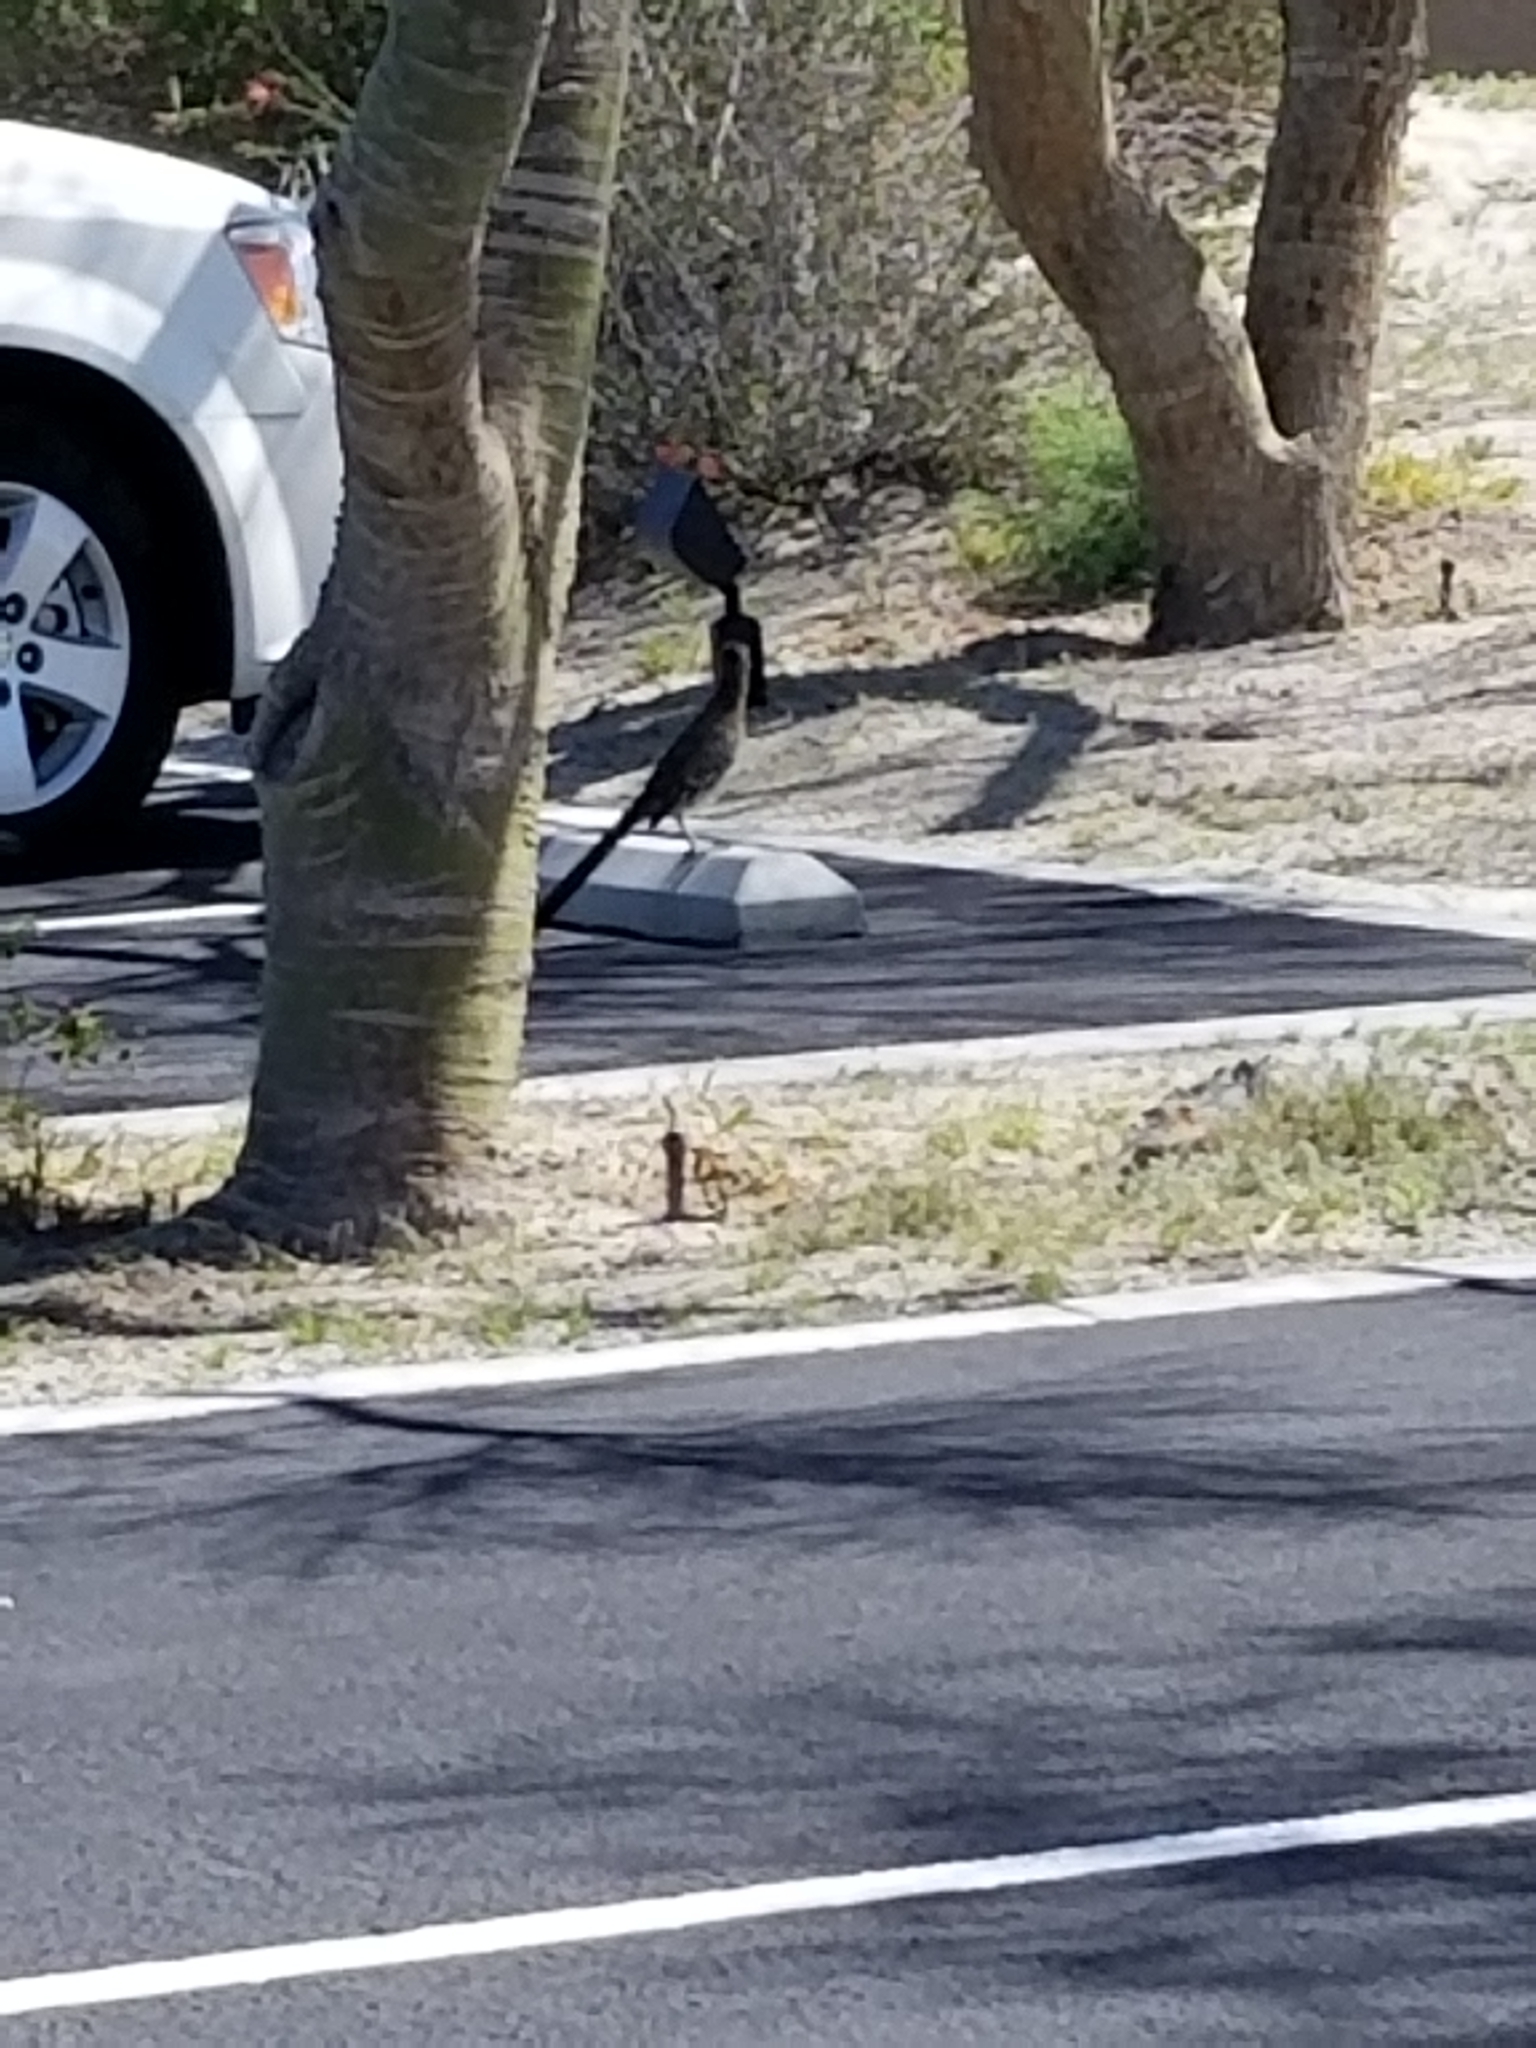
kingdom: Animalia
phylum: Chordata
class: Aves
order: Cuculiformes
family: Cuculidae
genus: Geococcyx
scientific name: Geococcyx californianus
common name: Greater roadrunner
